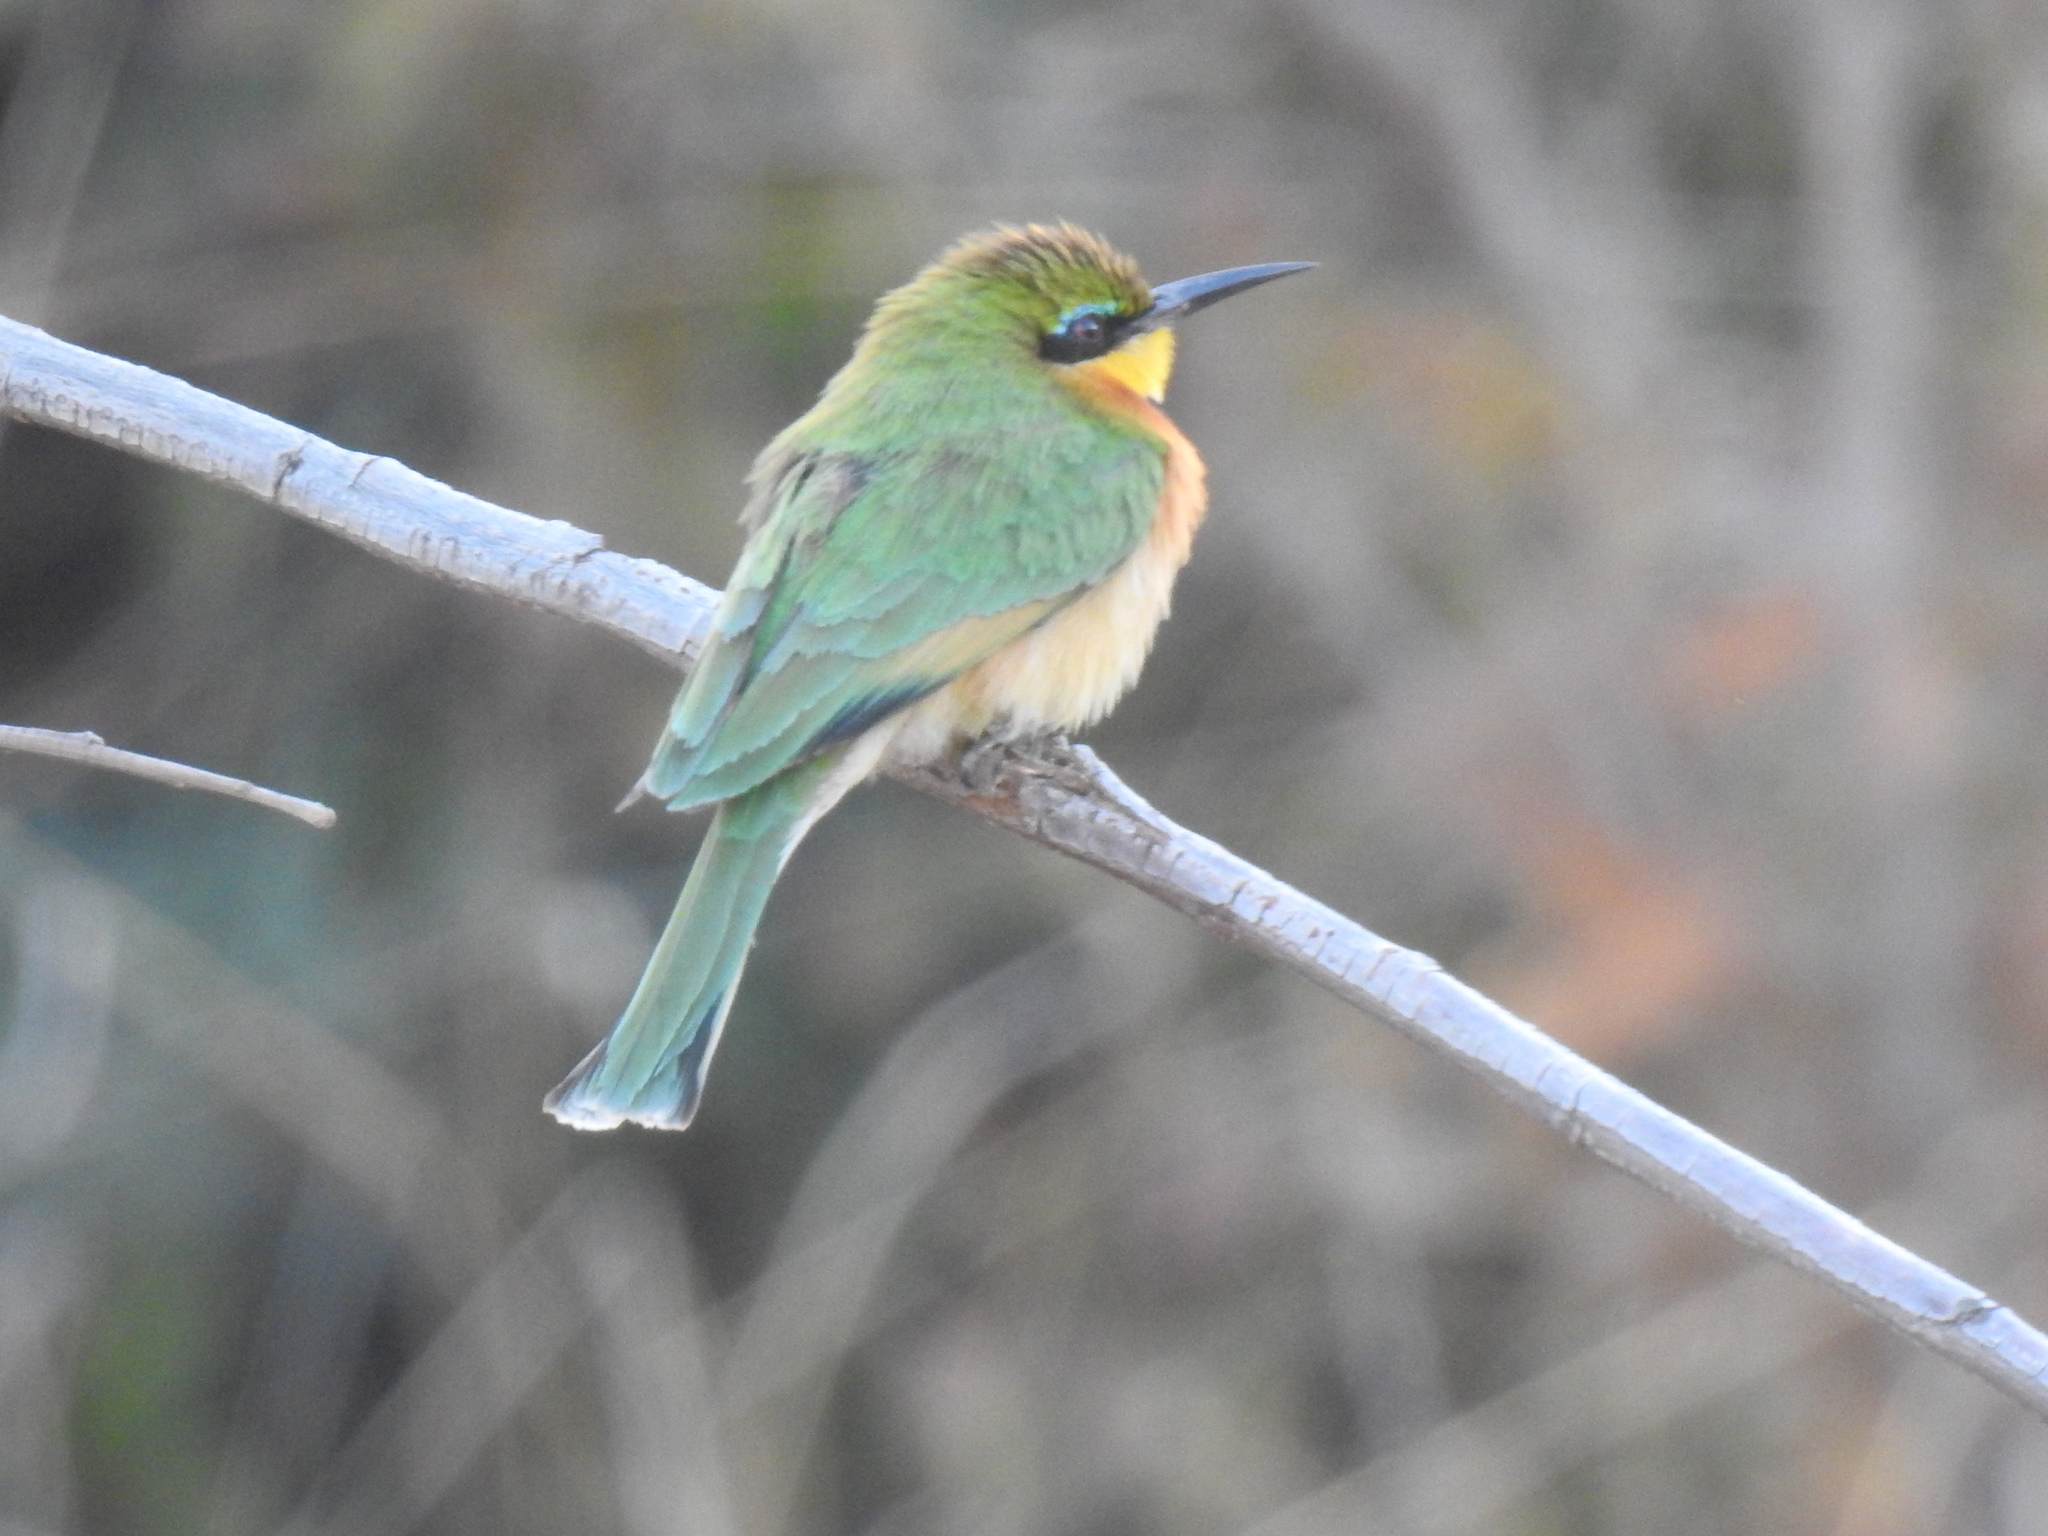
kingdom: Animalia
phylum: Chordata
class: Aves
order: Coraciiformes
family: Meropidae
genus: Merops
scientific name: Merops pusillus
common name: Little bee-eater
